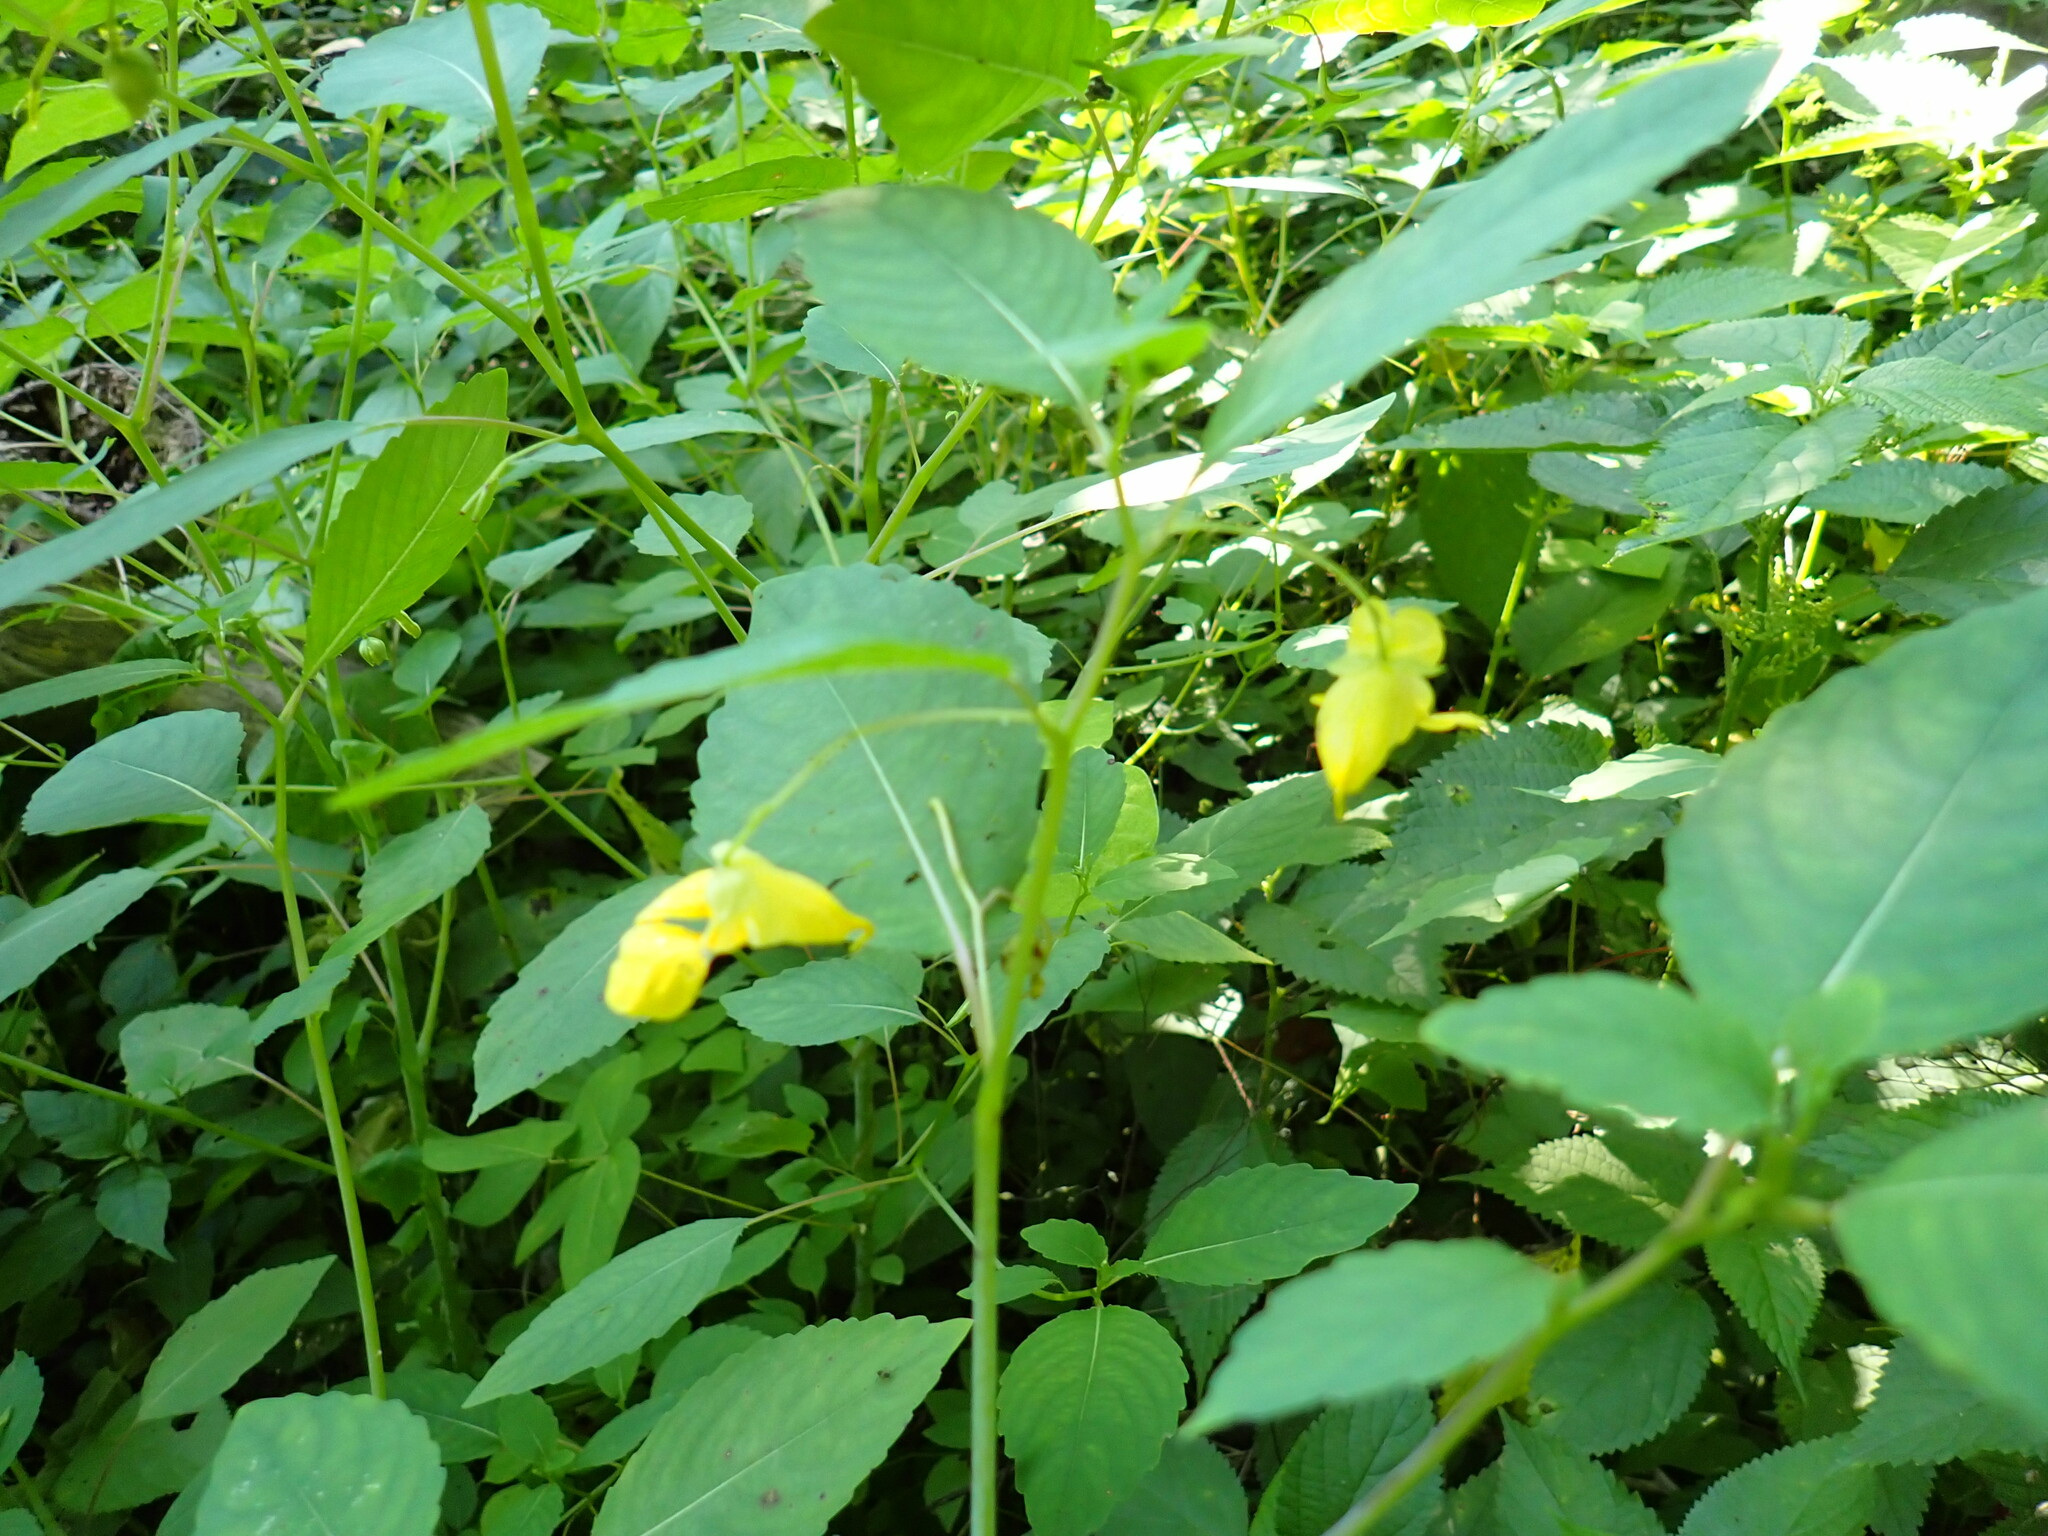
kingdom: Plantae
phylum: Tracheophyta
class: Magnoliopsida
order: Ericales
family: Balsaminaceae
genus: Impatiens
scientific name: Impatiens pallida
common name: Pale snapweed
